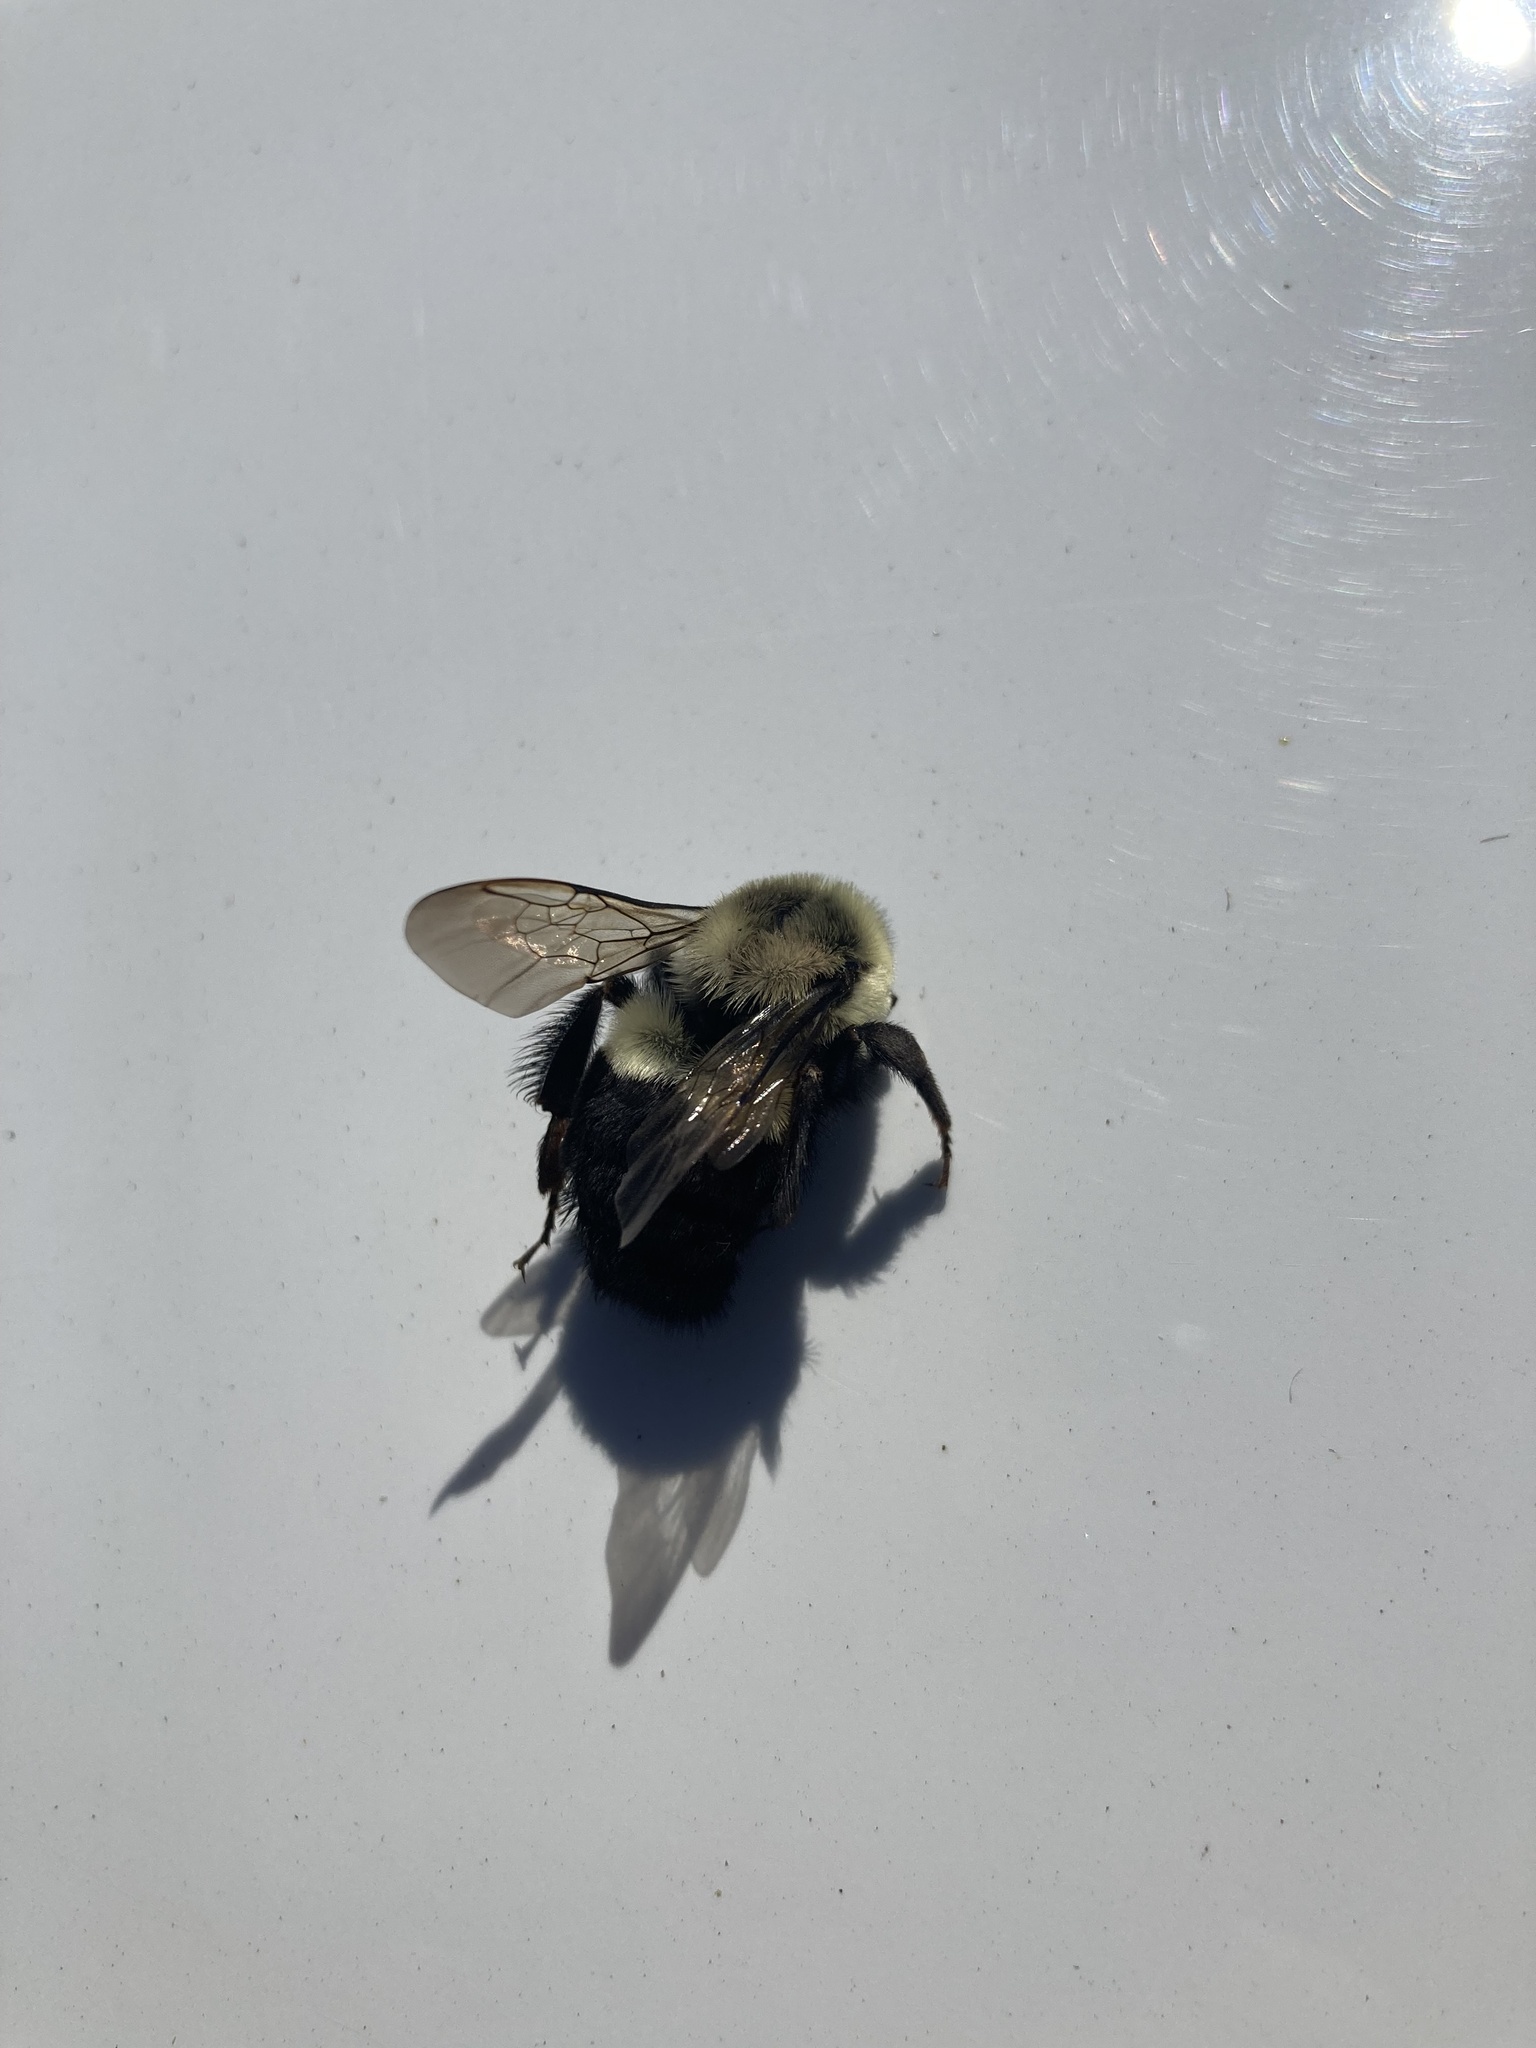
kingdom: Animalia
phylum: Arthropoda
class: Insecta
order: Hymenoptera
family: Apidae
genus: Bombus
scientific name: Bombus impatiens
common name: Common eastern bumble bee
